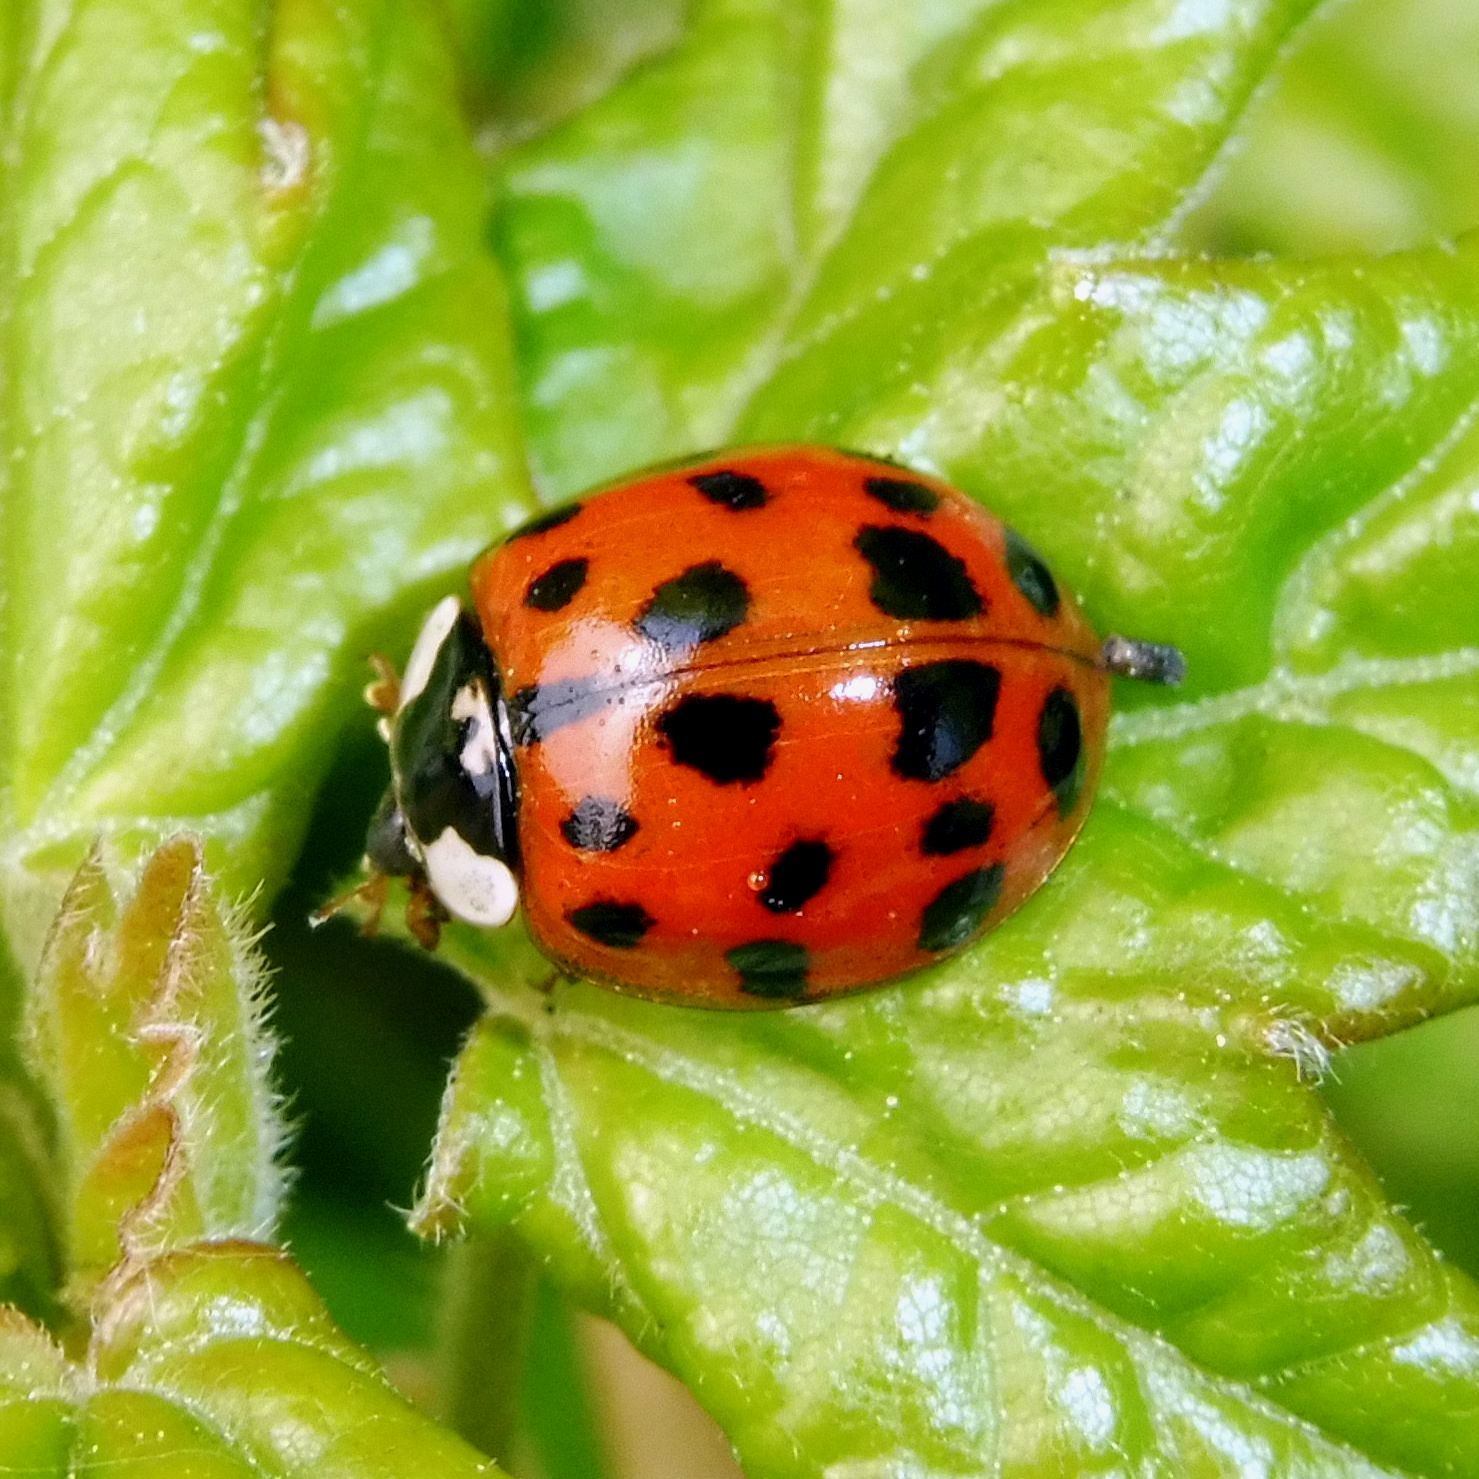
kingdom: Animalia
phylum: Arthropoda
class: Insecta
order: Coleoptera
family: Coccinellidae
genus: Harmonia
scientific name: Harmonia axyridis
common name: Harlequin ladybird
